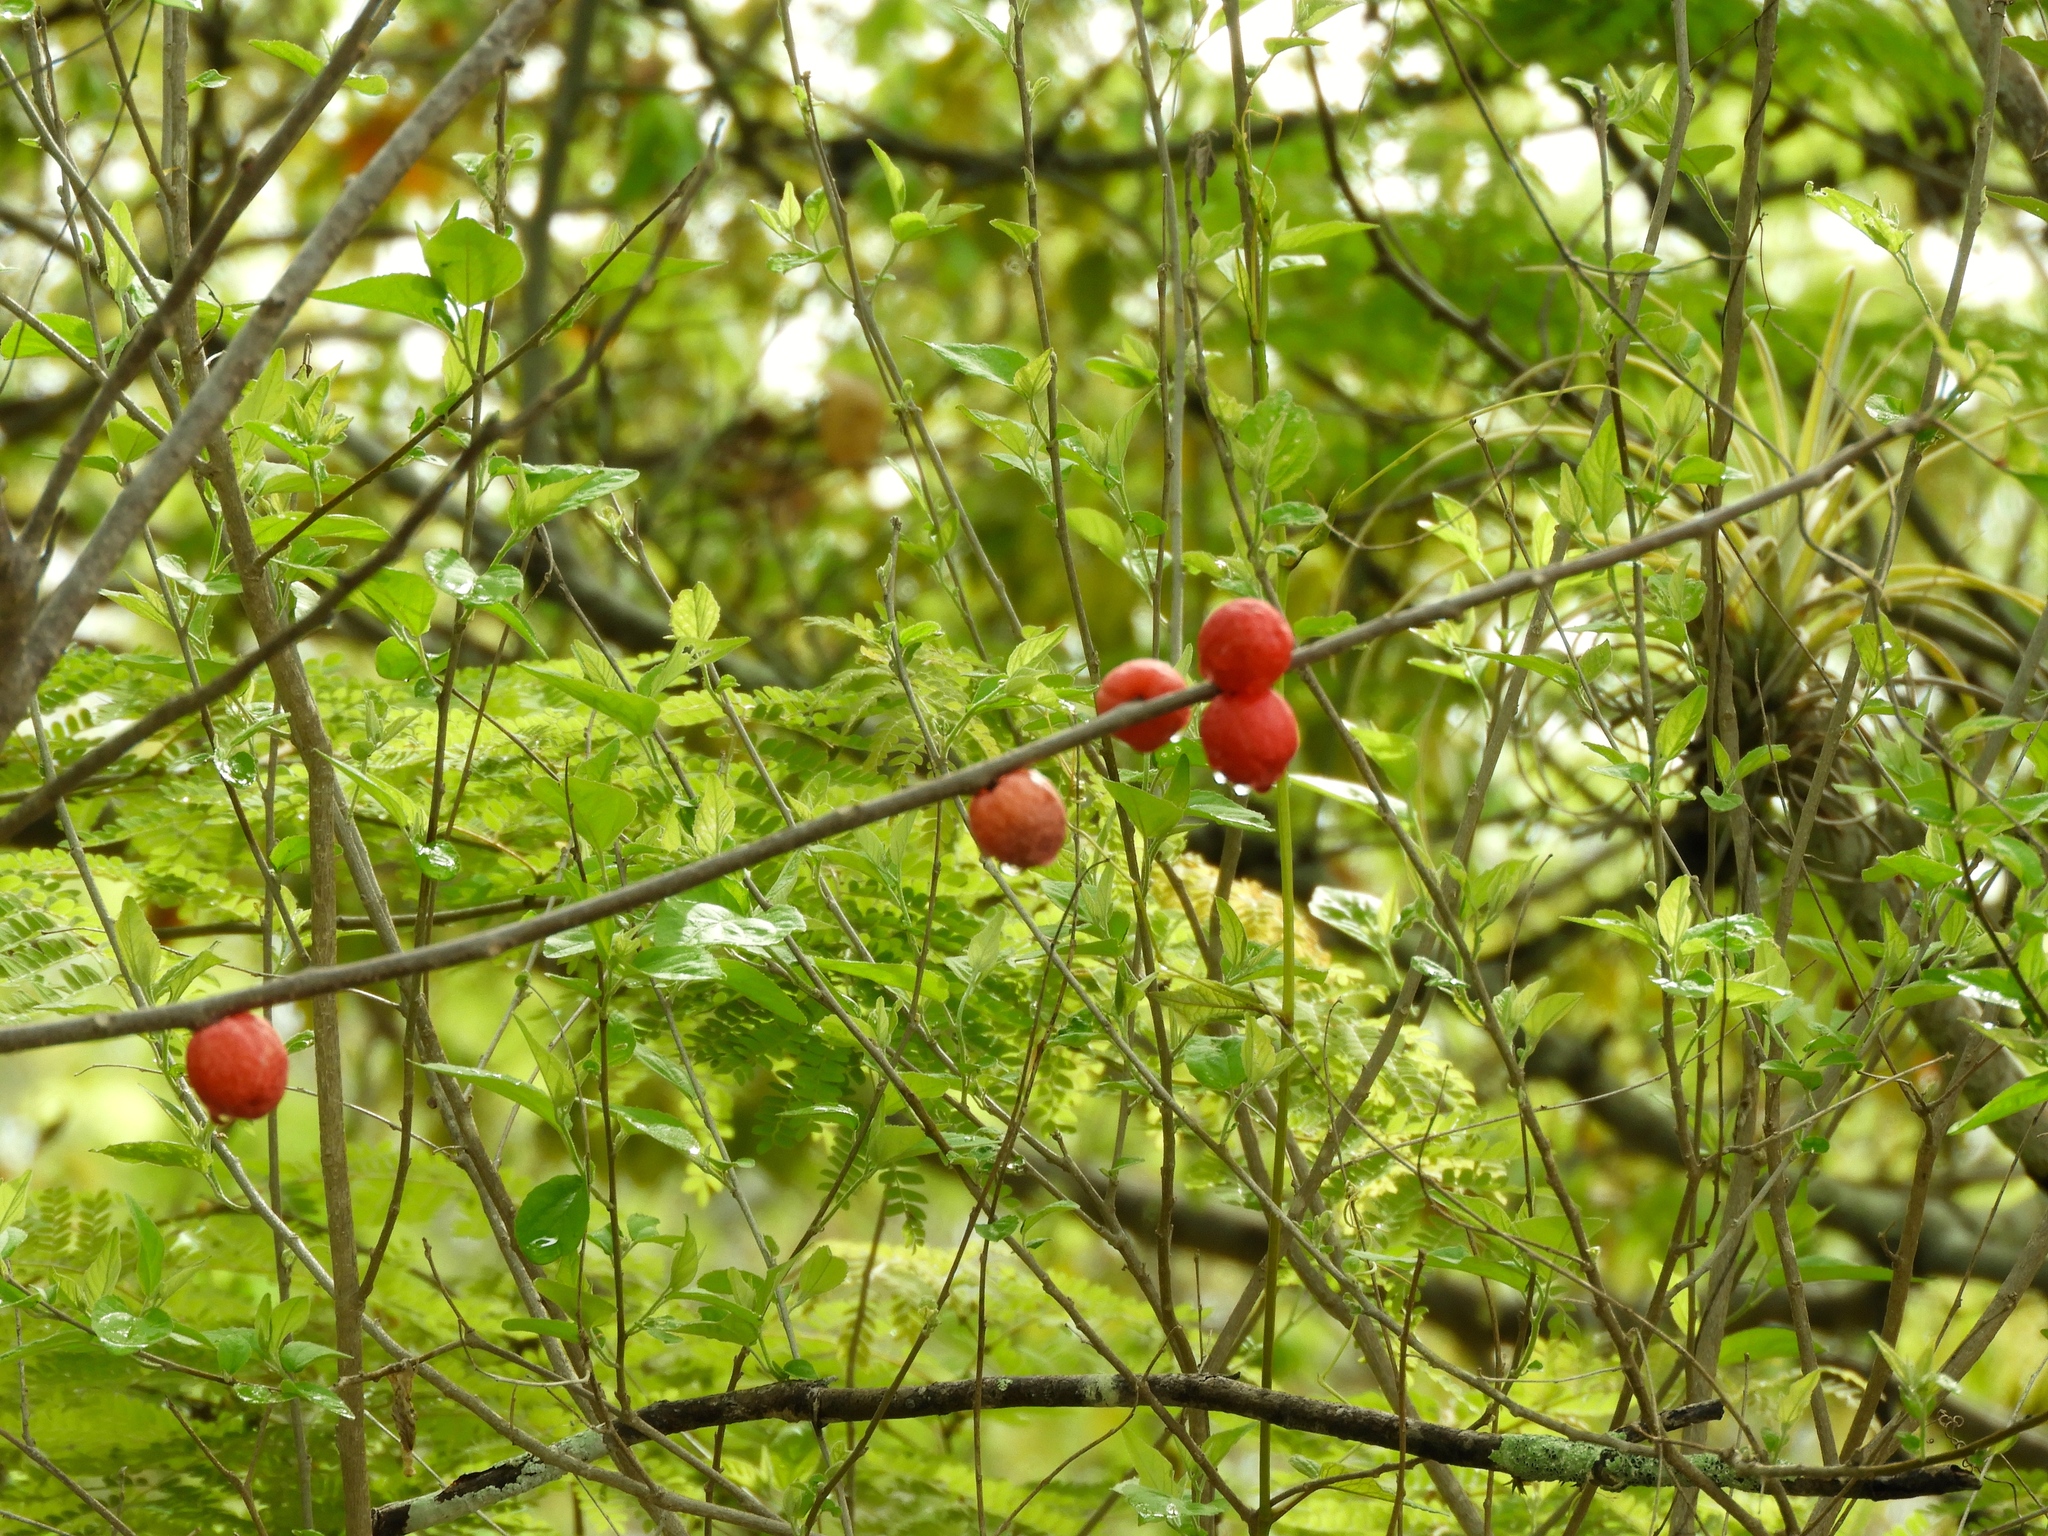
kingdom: Plantae
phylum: Tracheophyta
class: Magnoliopsida
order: Sapindales
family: Anacardiaceae
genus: Spondias
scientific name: Spondias purpurea
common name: Purple mombin
